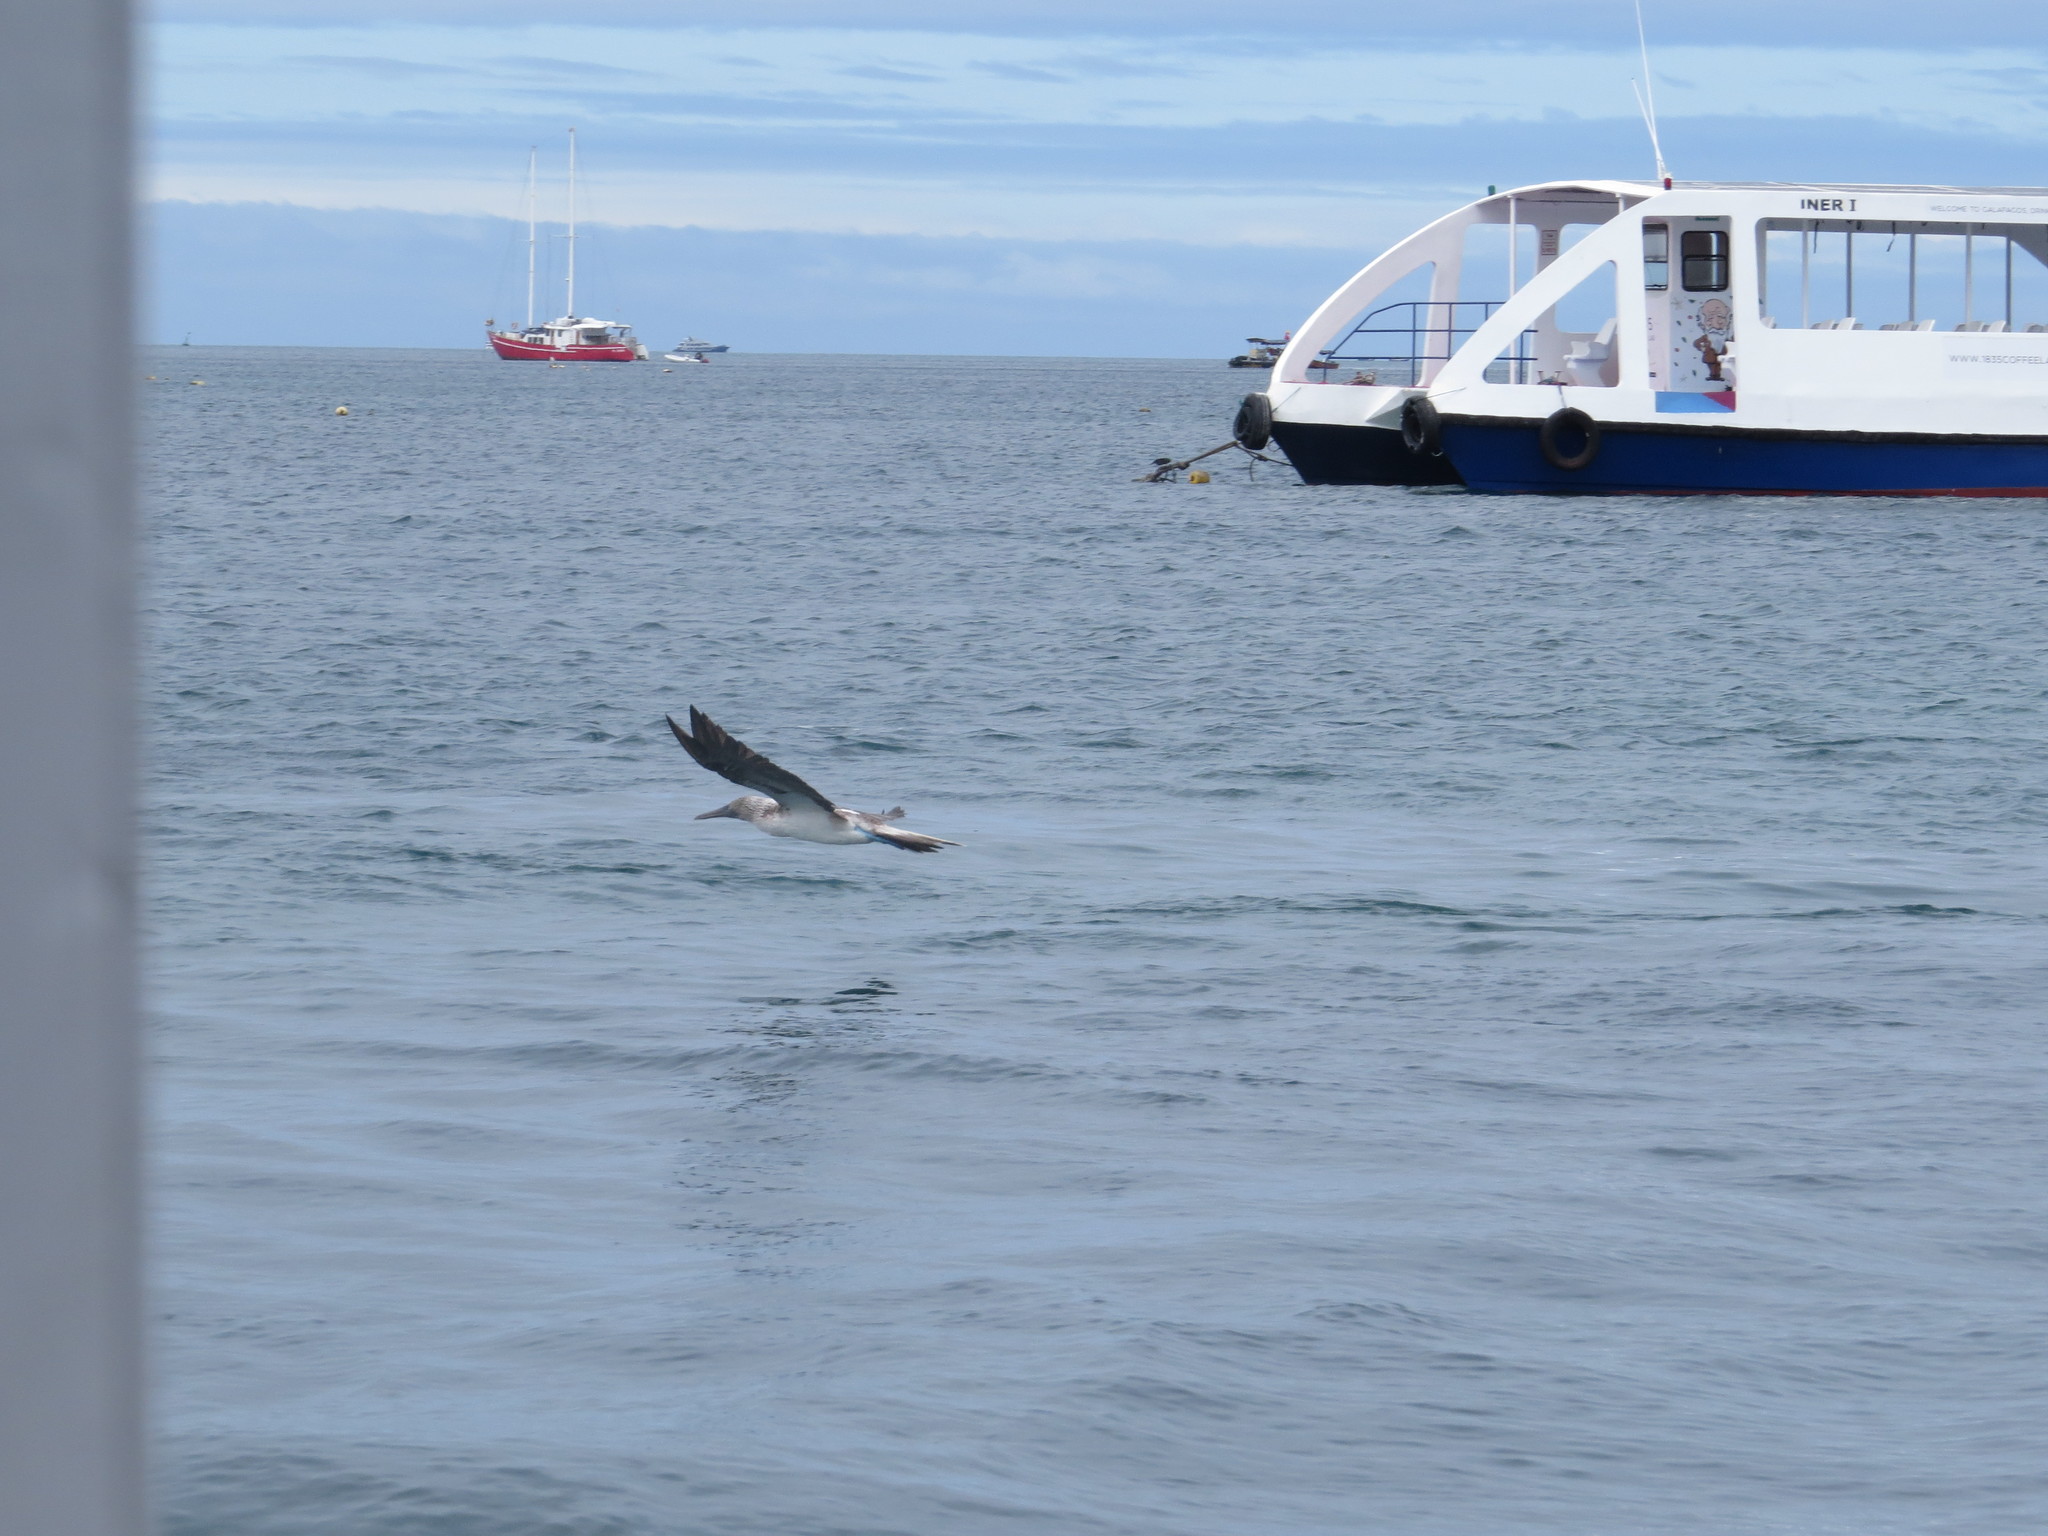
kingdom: Animalia
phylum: Chordata
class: Aves
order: Suliformes
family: Sulidae
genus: Sula
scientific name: Sula nebouxii
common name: Blue-footed booby
